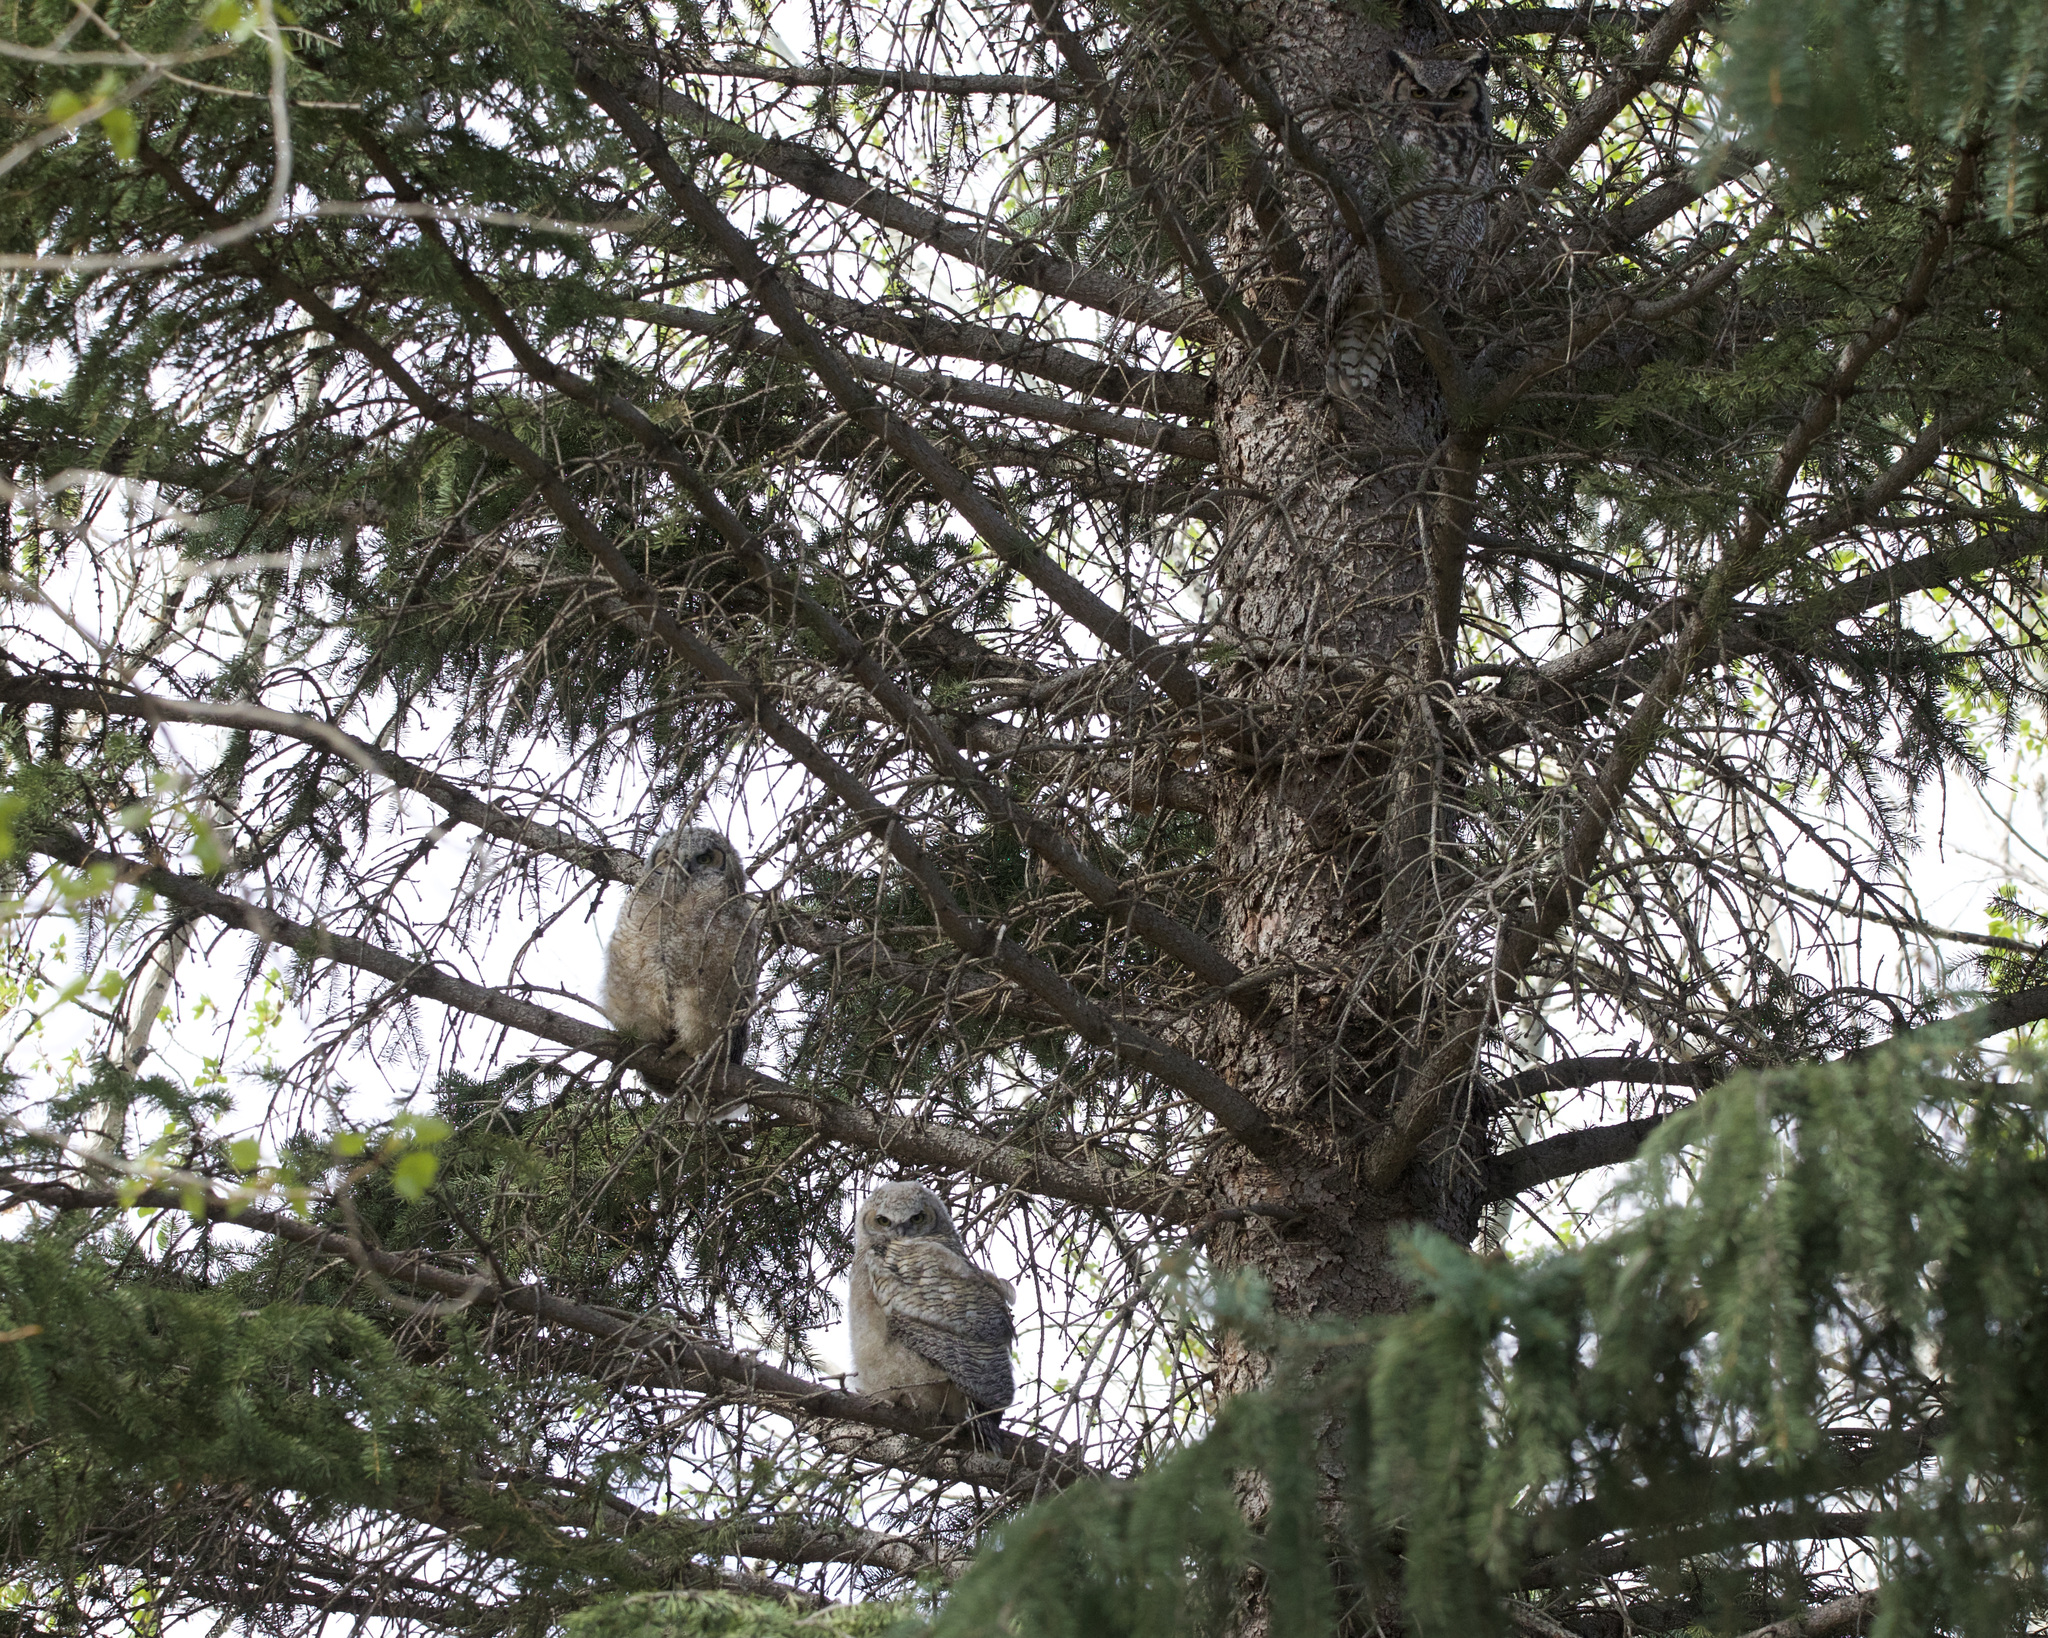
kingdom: Animalia
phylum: Chordata
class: Aves
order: Strigiformes
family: Strigidae
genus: Bubo
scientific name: Bubo virginianus
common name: Great horned owl
